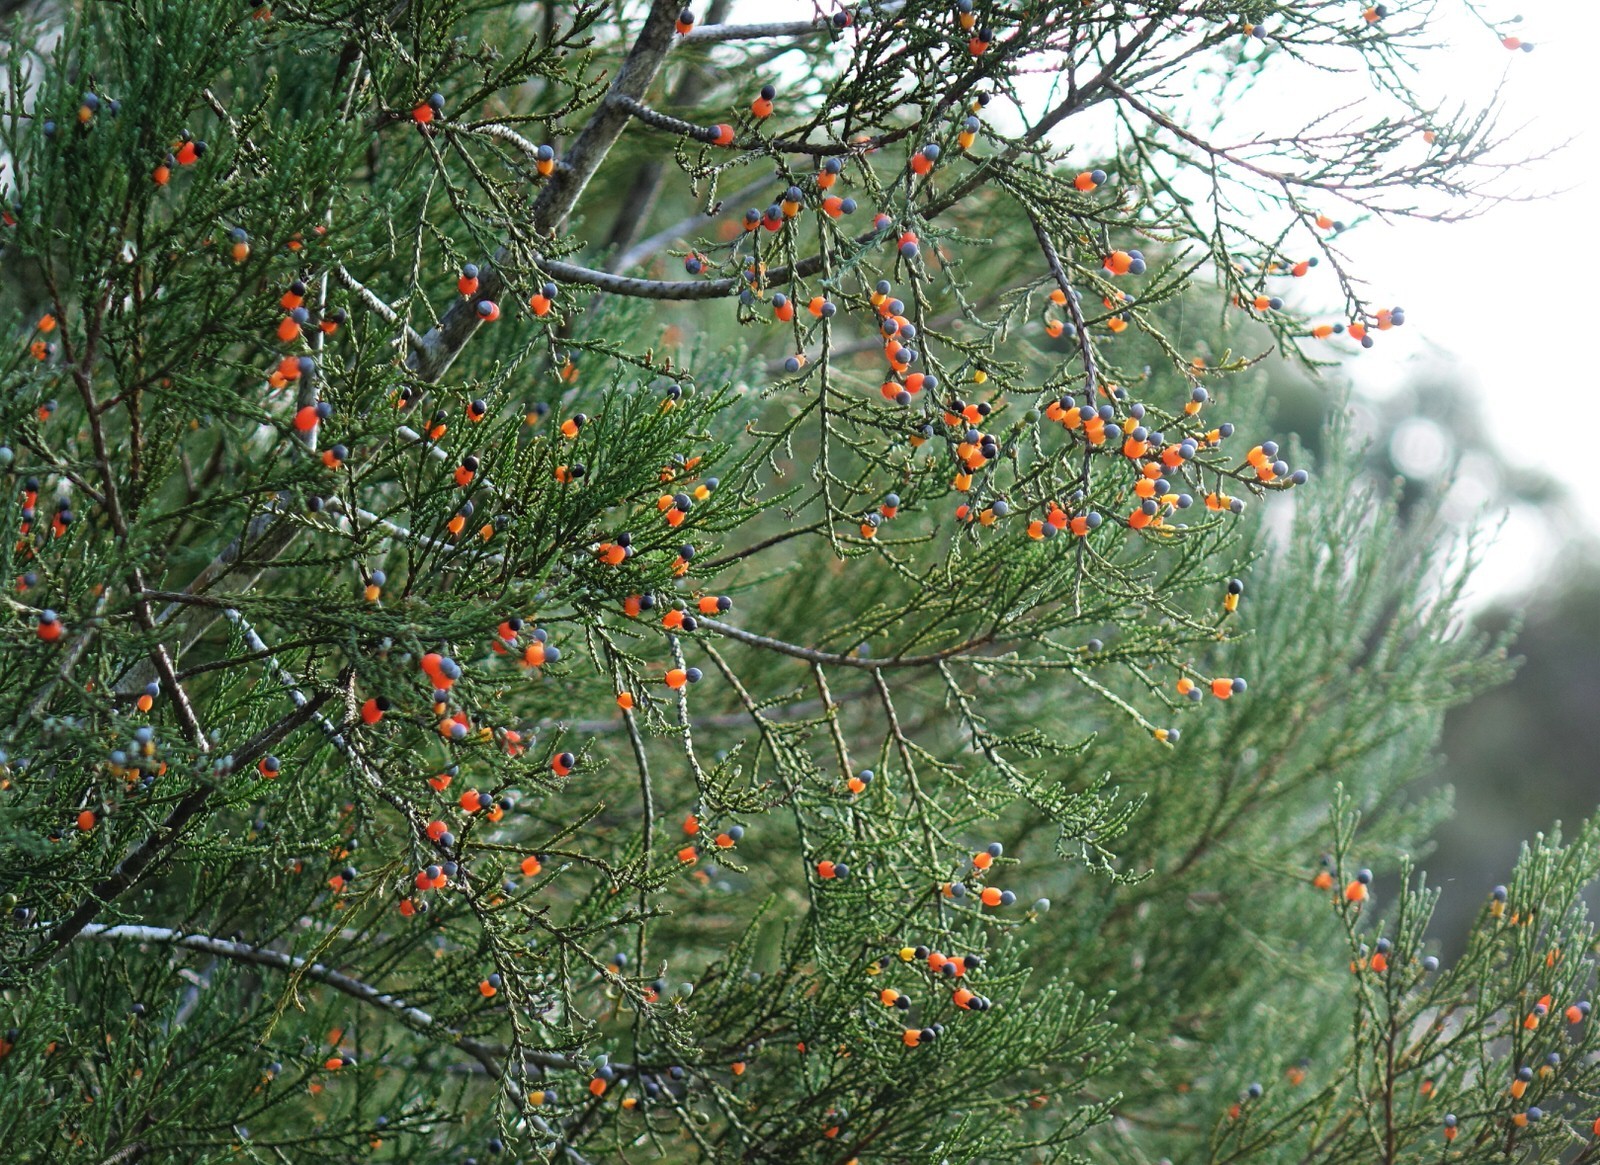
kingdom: Plantae
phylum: Tracheophyta
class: Pinopsida
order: Pinales
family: Podocarpaceae
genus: Dacrycarpus
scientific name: Dacrycarpus dacrydioides
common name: White pine
